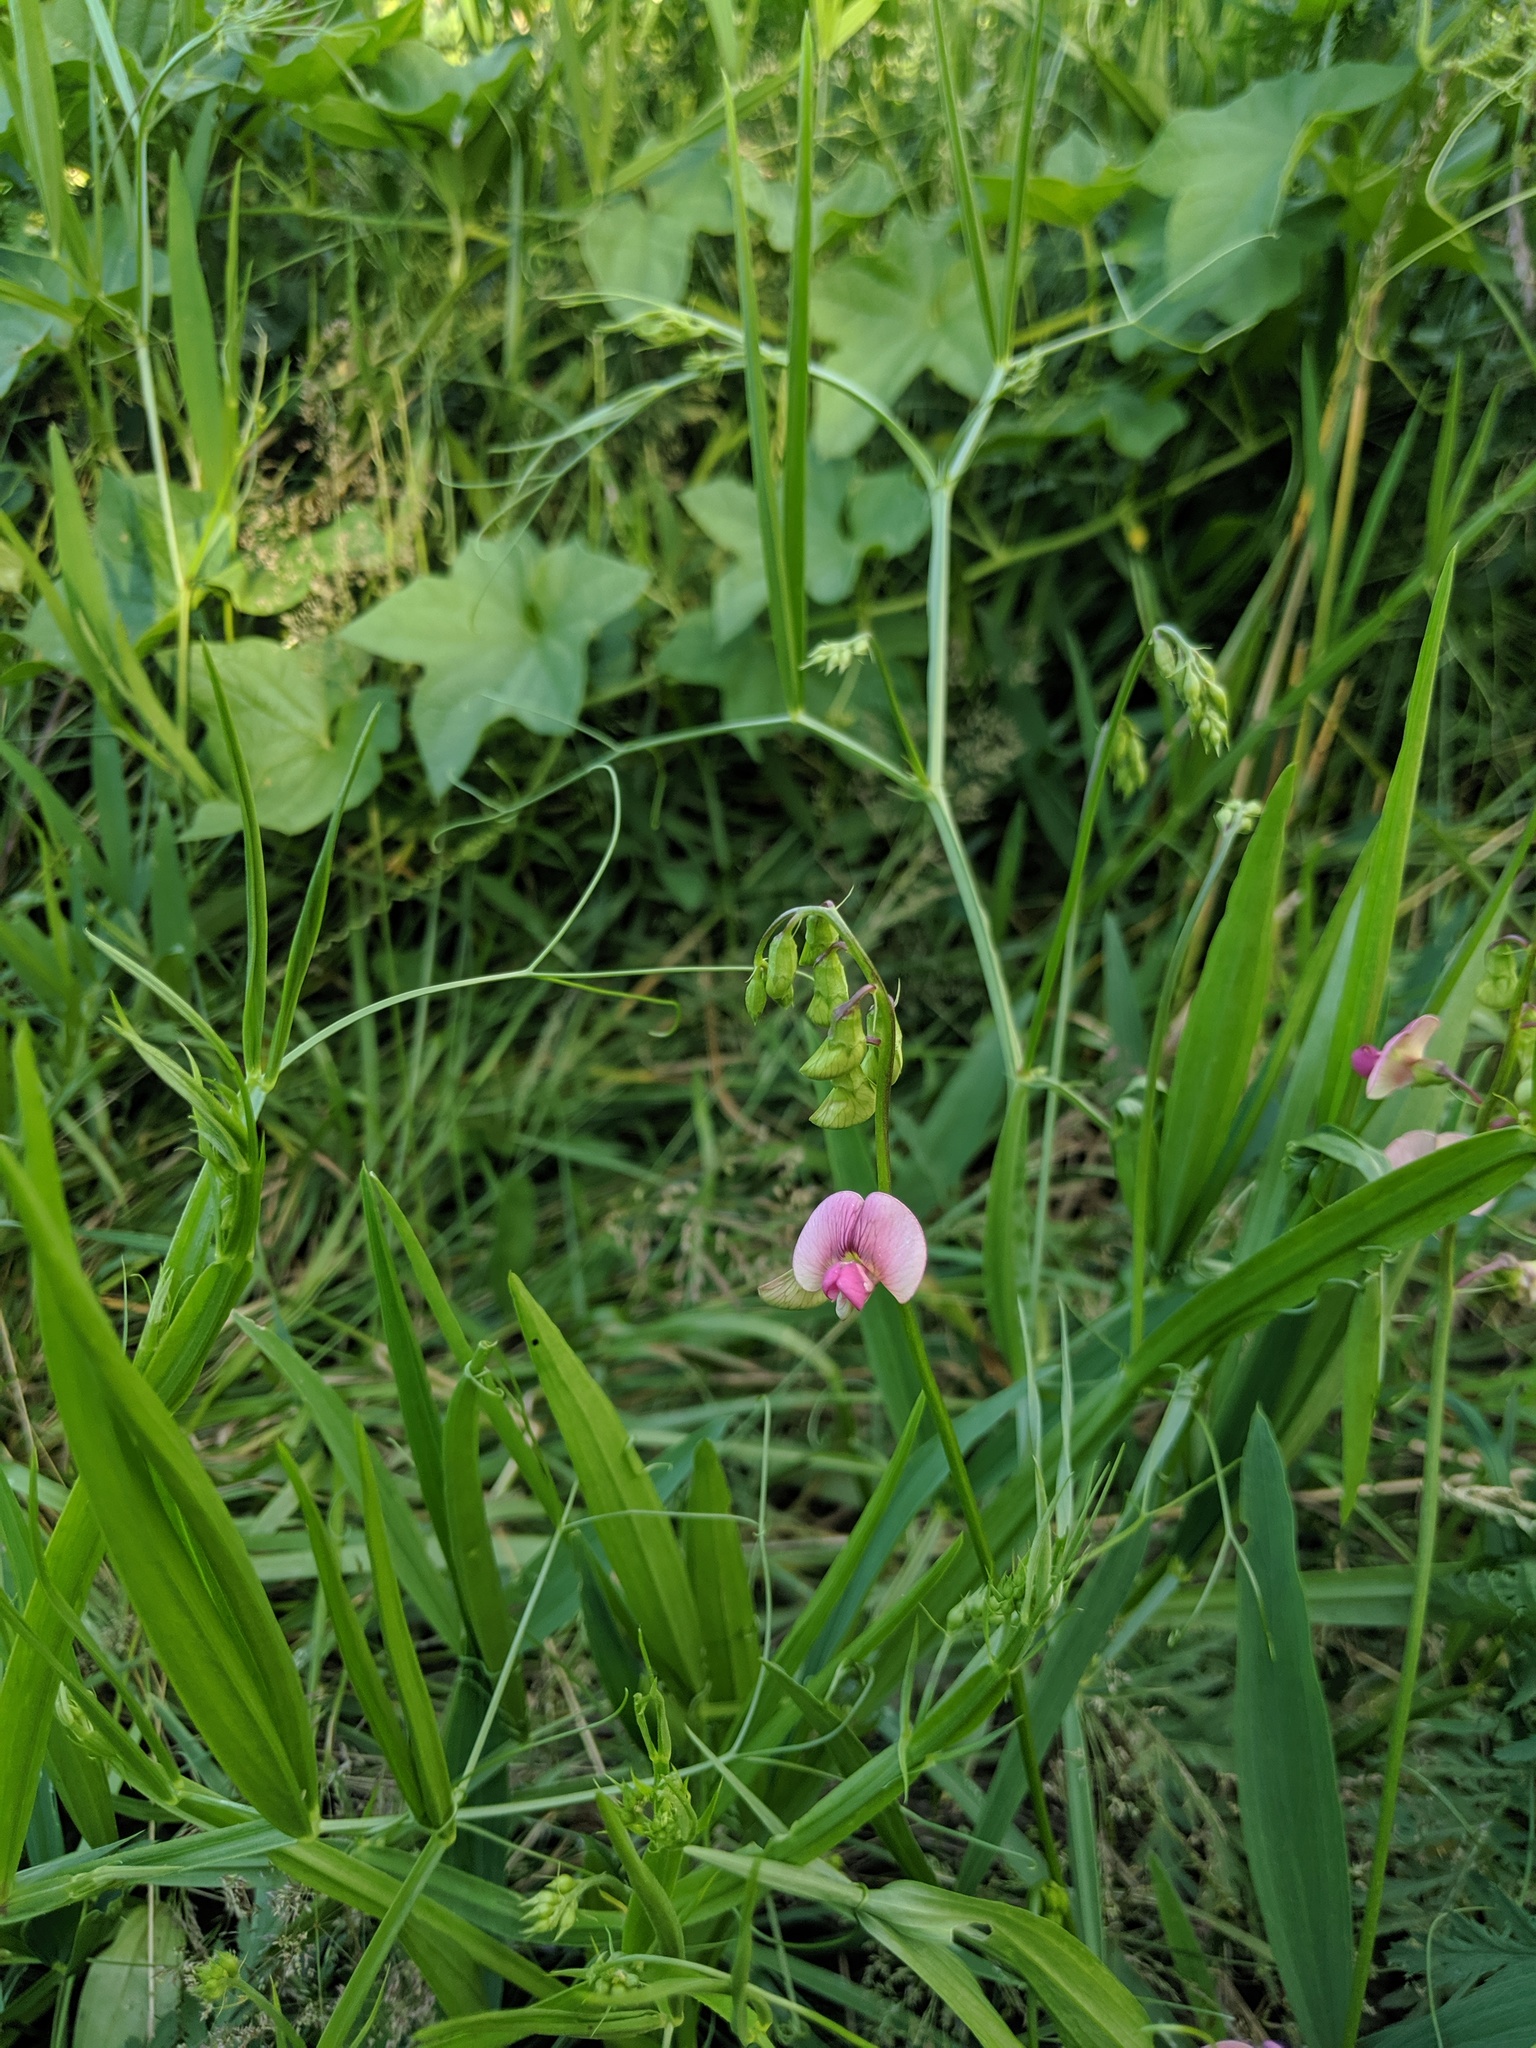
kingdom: Plantae
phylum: Tracheophyta
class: Magnoliopsida
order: Fabales
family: Fabaceae
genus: Lathyrus
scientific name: Lathyrus sylvestris
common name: Flat pea
